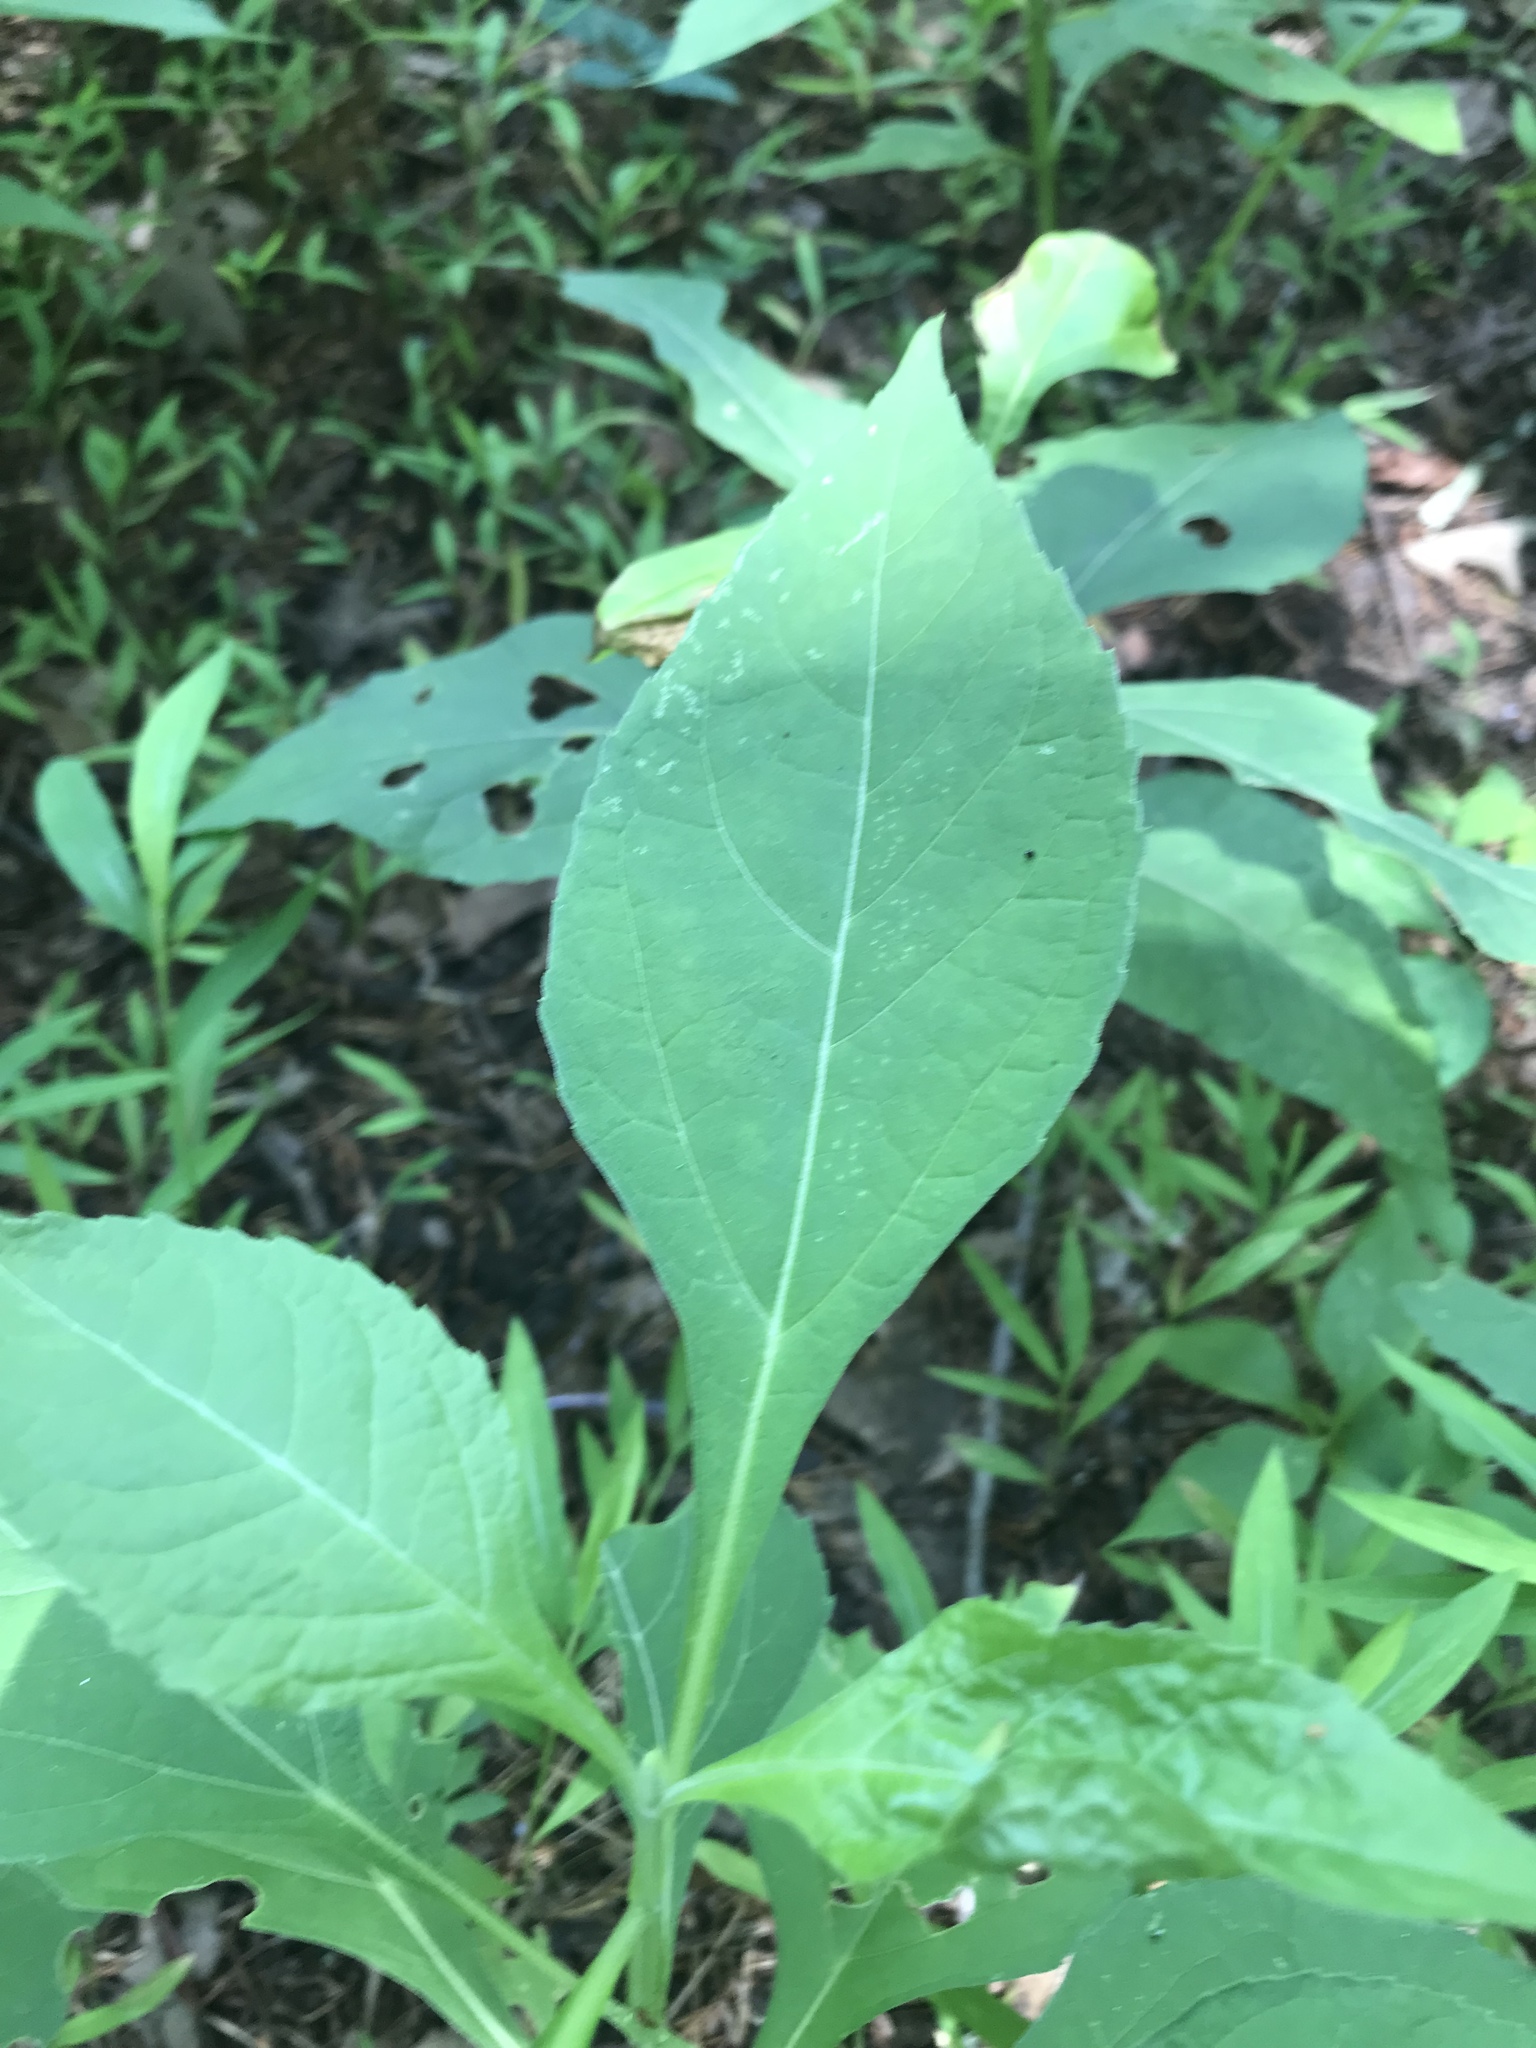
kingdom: Plantae
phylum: Tracheophyta
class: Magnoliopsida
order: Asterales
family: Asteraceae
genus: Verbesina
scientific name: Verbesina occidentalis
